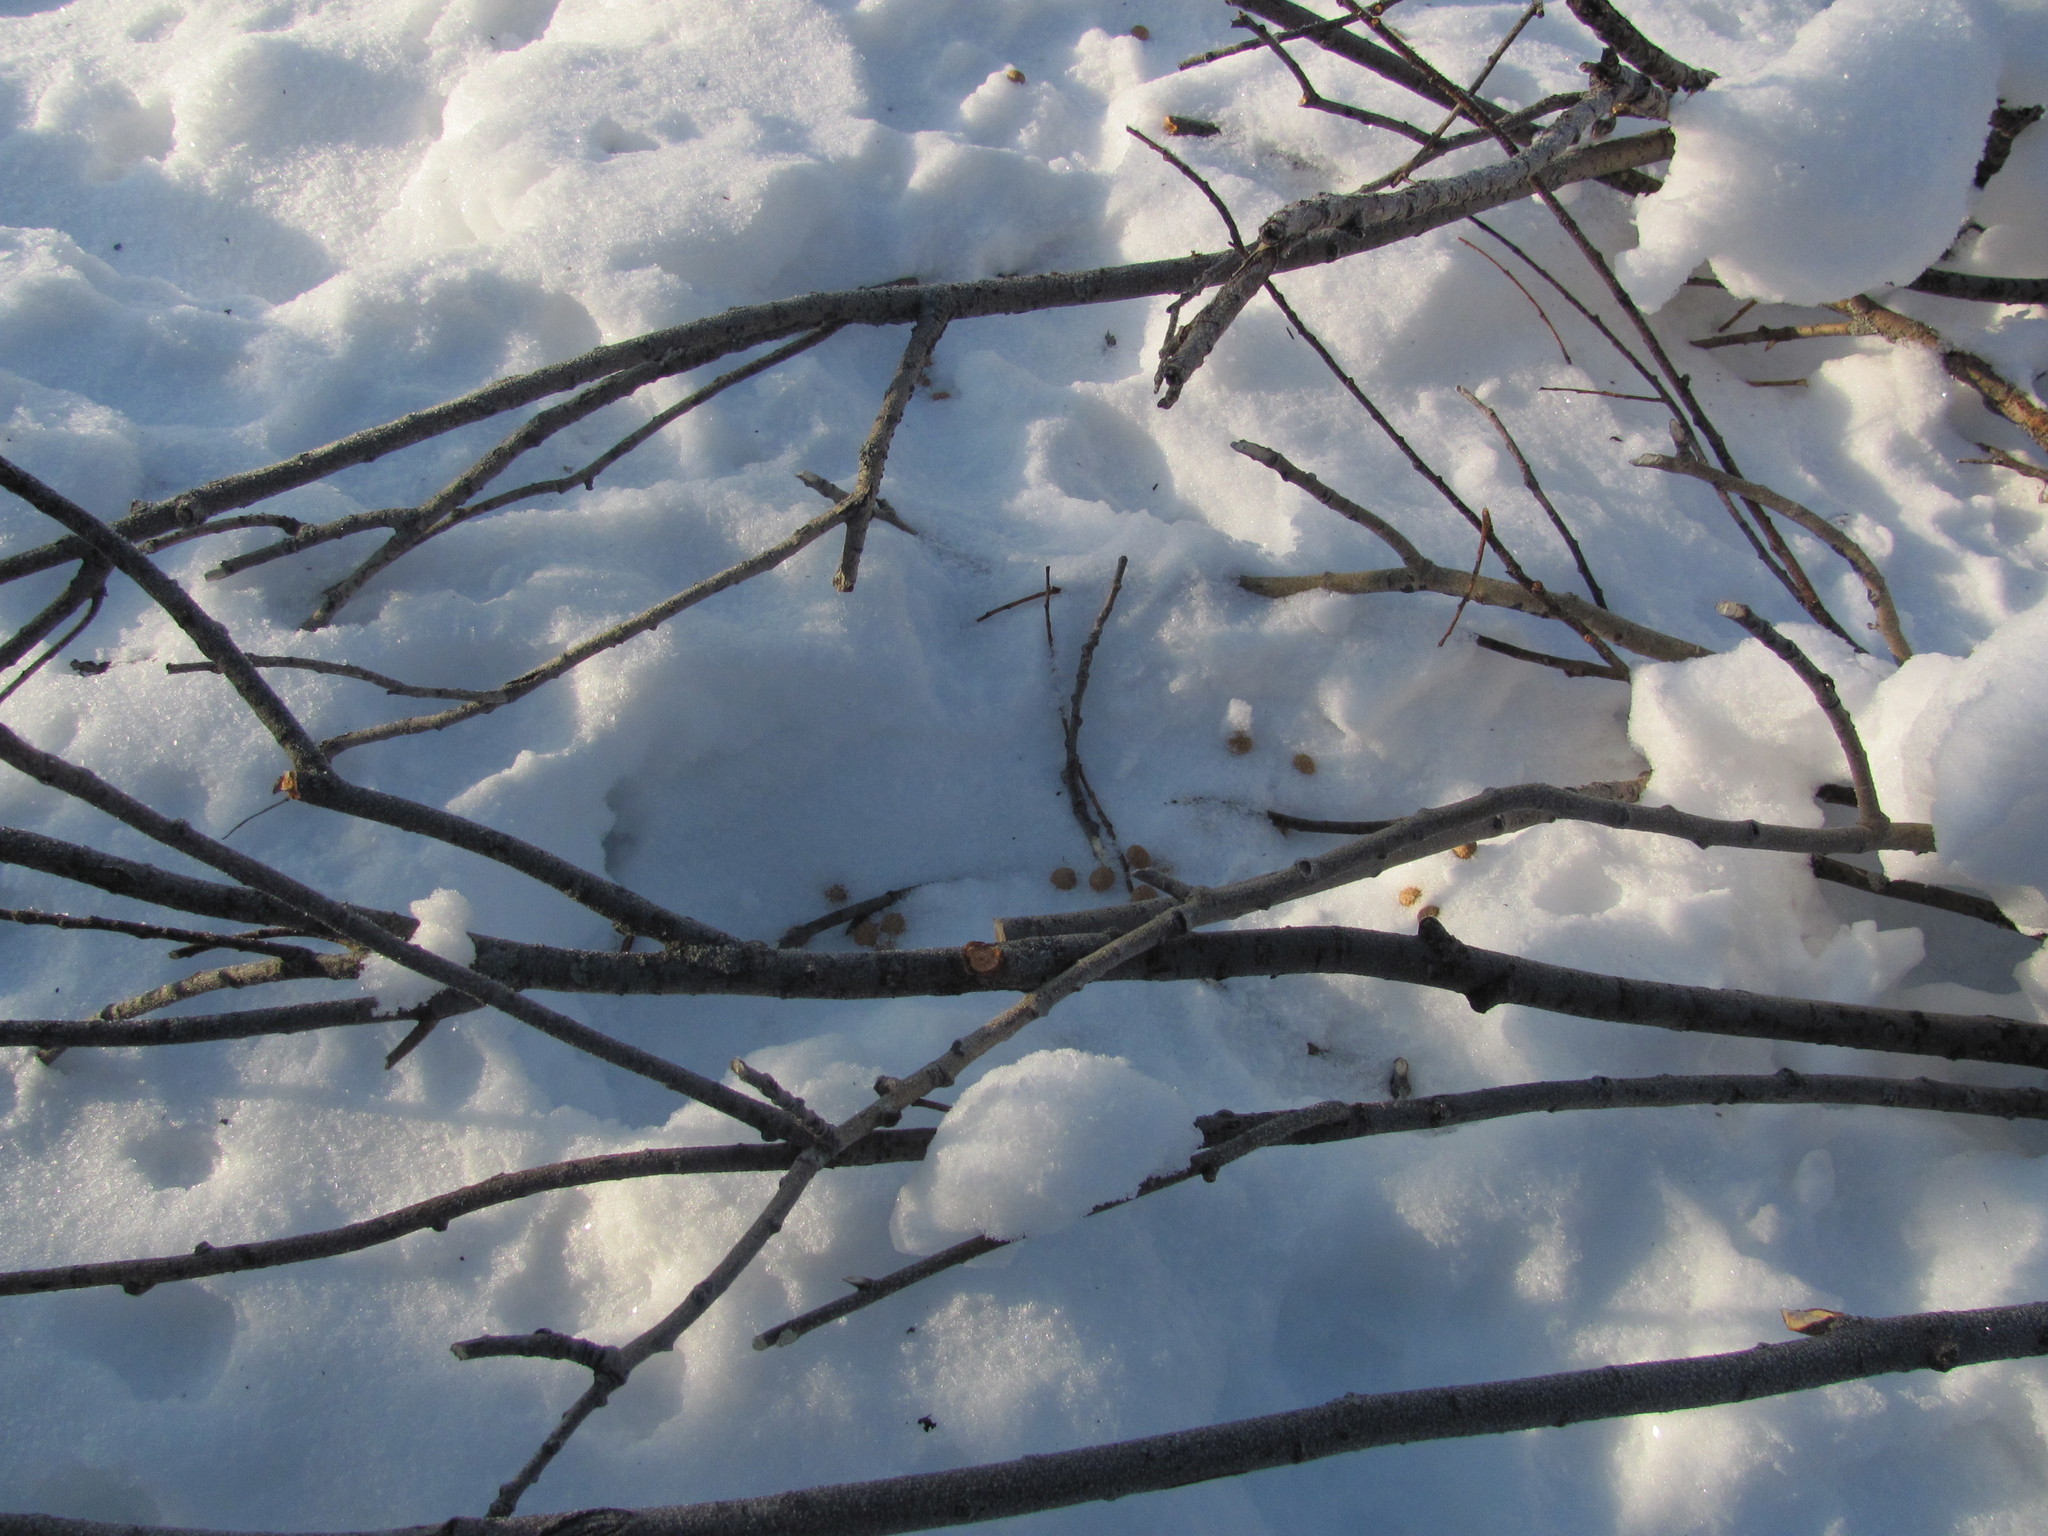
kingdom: Animalia
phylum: Chordata
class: Mammalia
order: Lagomorpha
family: Leporidae
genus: Lepus
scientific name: Lepus timidus
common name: Mountain hare
